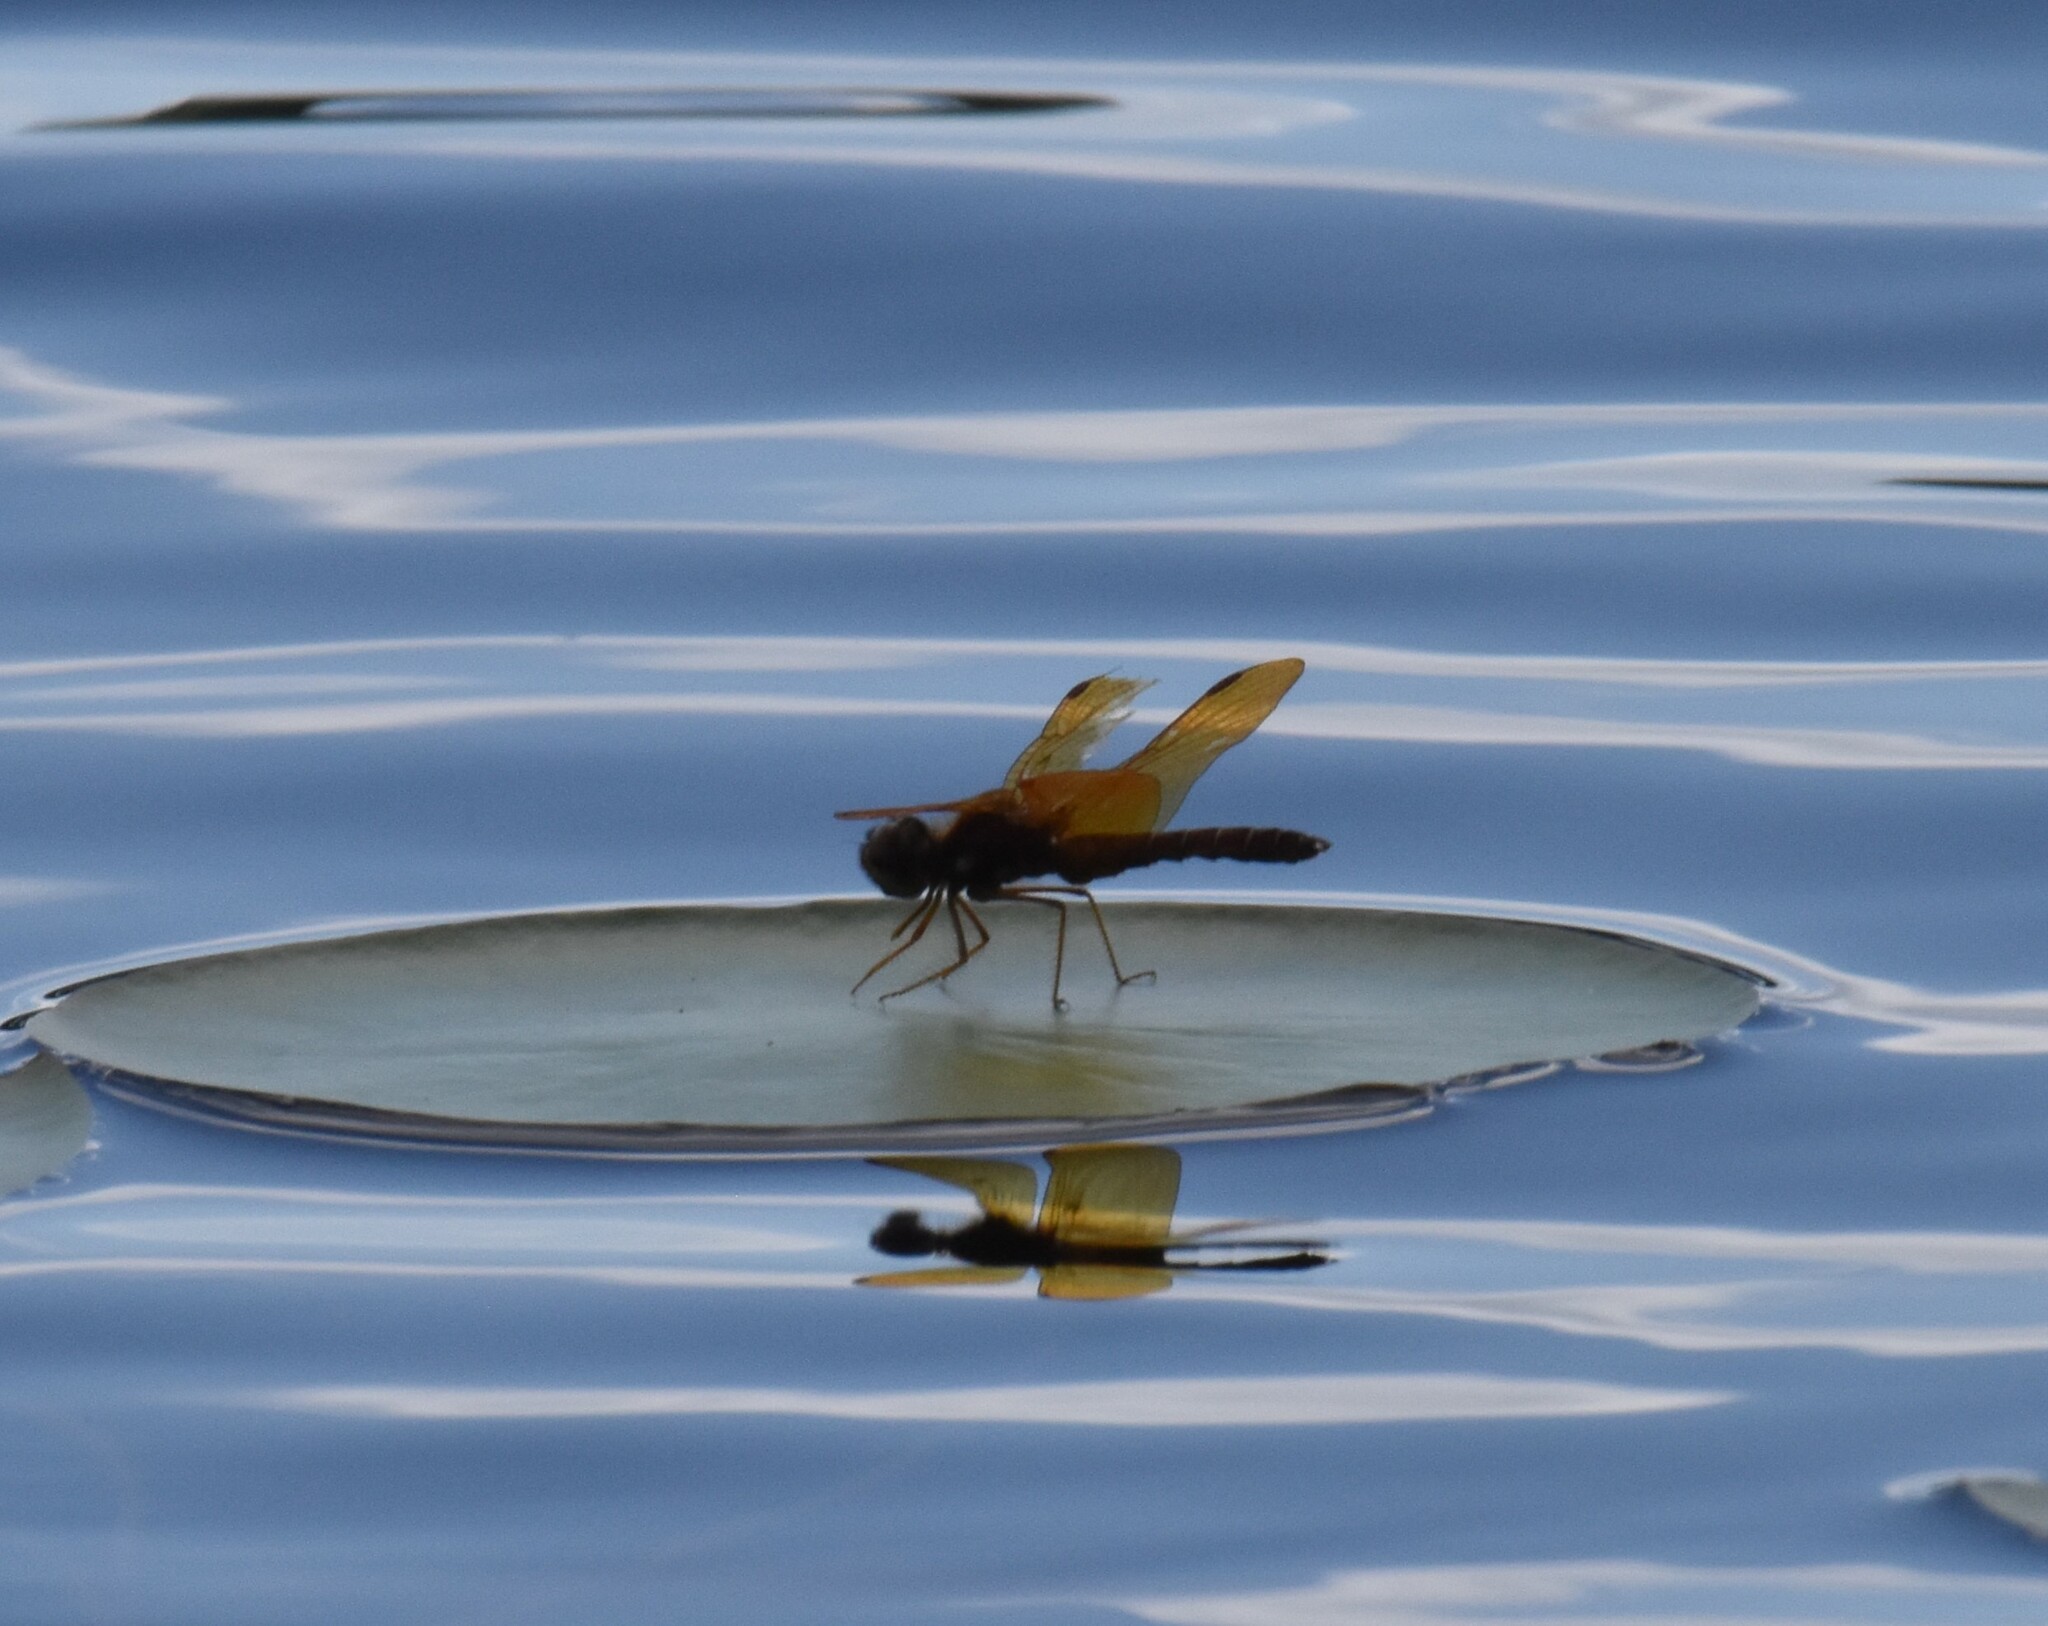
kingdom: Animalia
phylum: Arthropoda
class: Insecta
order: Odonata
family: Libellulidae
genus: Perithemis
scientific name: Perithemis tenera
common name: Eastern amberwing
